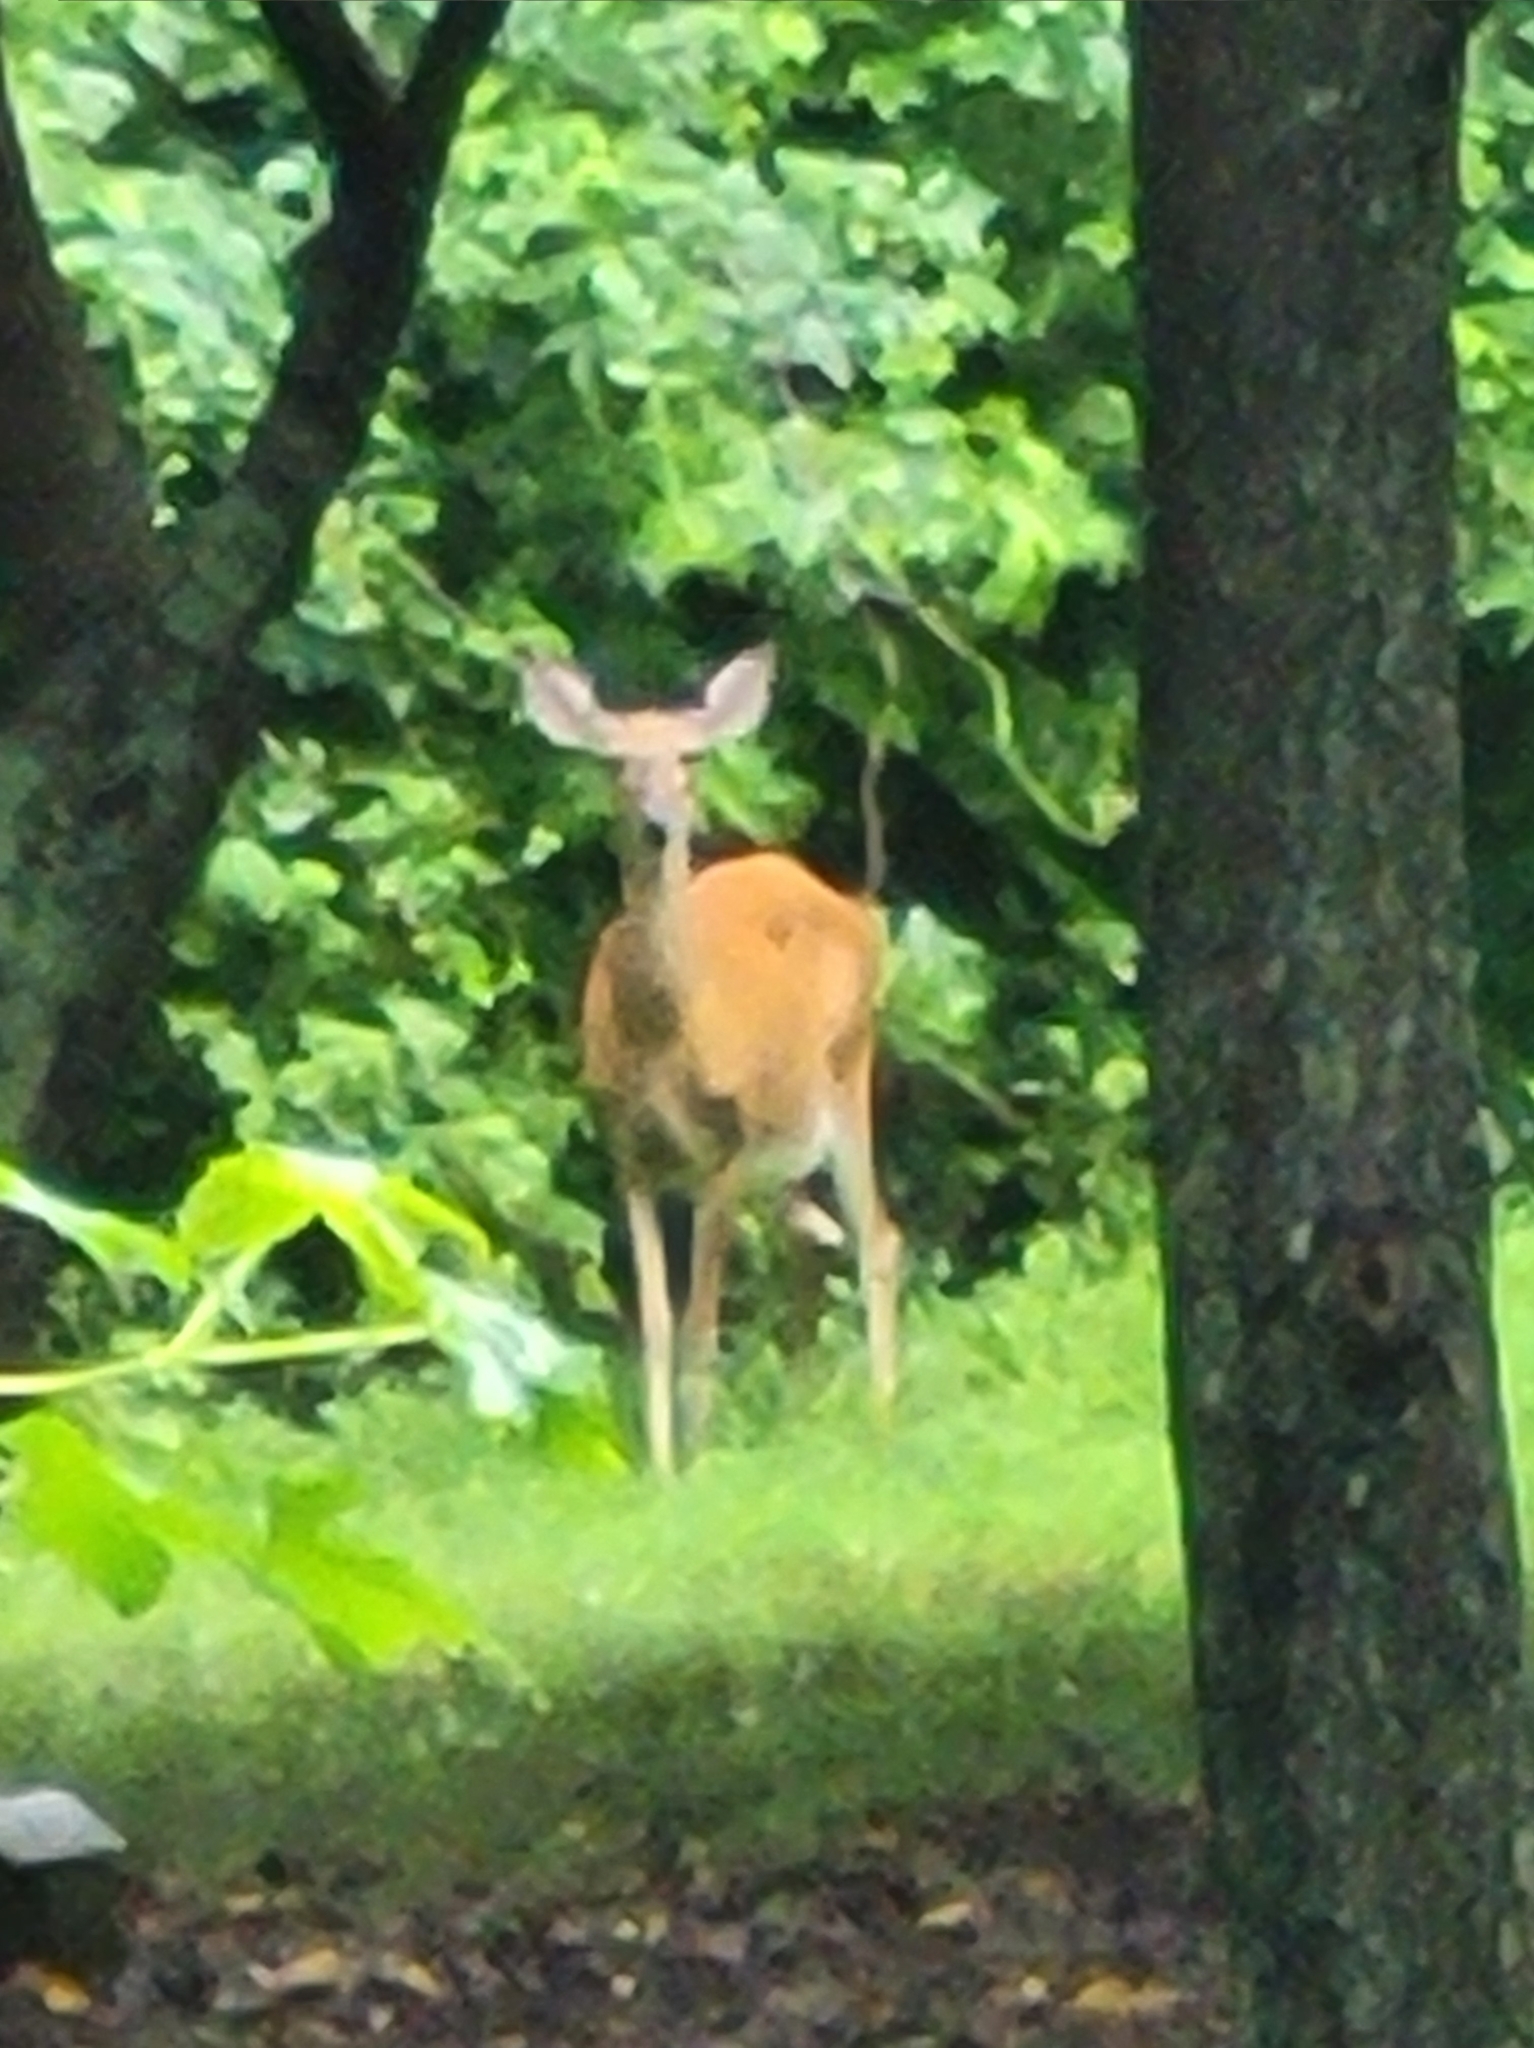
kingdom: Animalia
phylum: Chordata
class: Mammalia
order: Artiodactyla
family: Cervidae
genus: Odocoileus
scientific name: Odocoileus virginianus
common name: White-tailed deer
